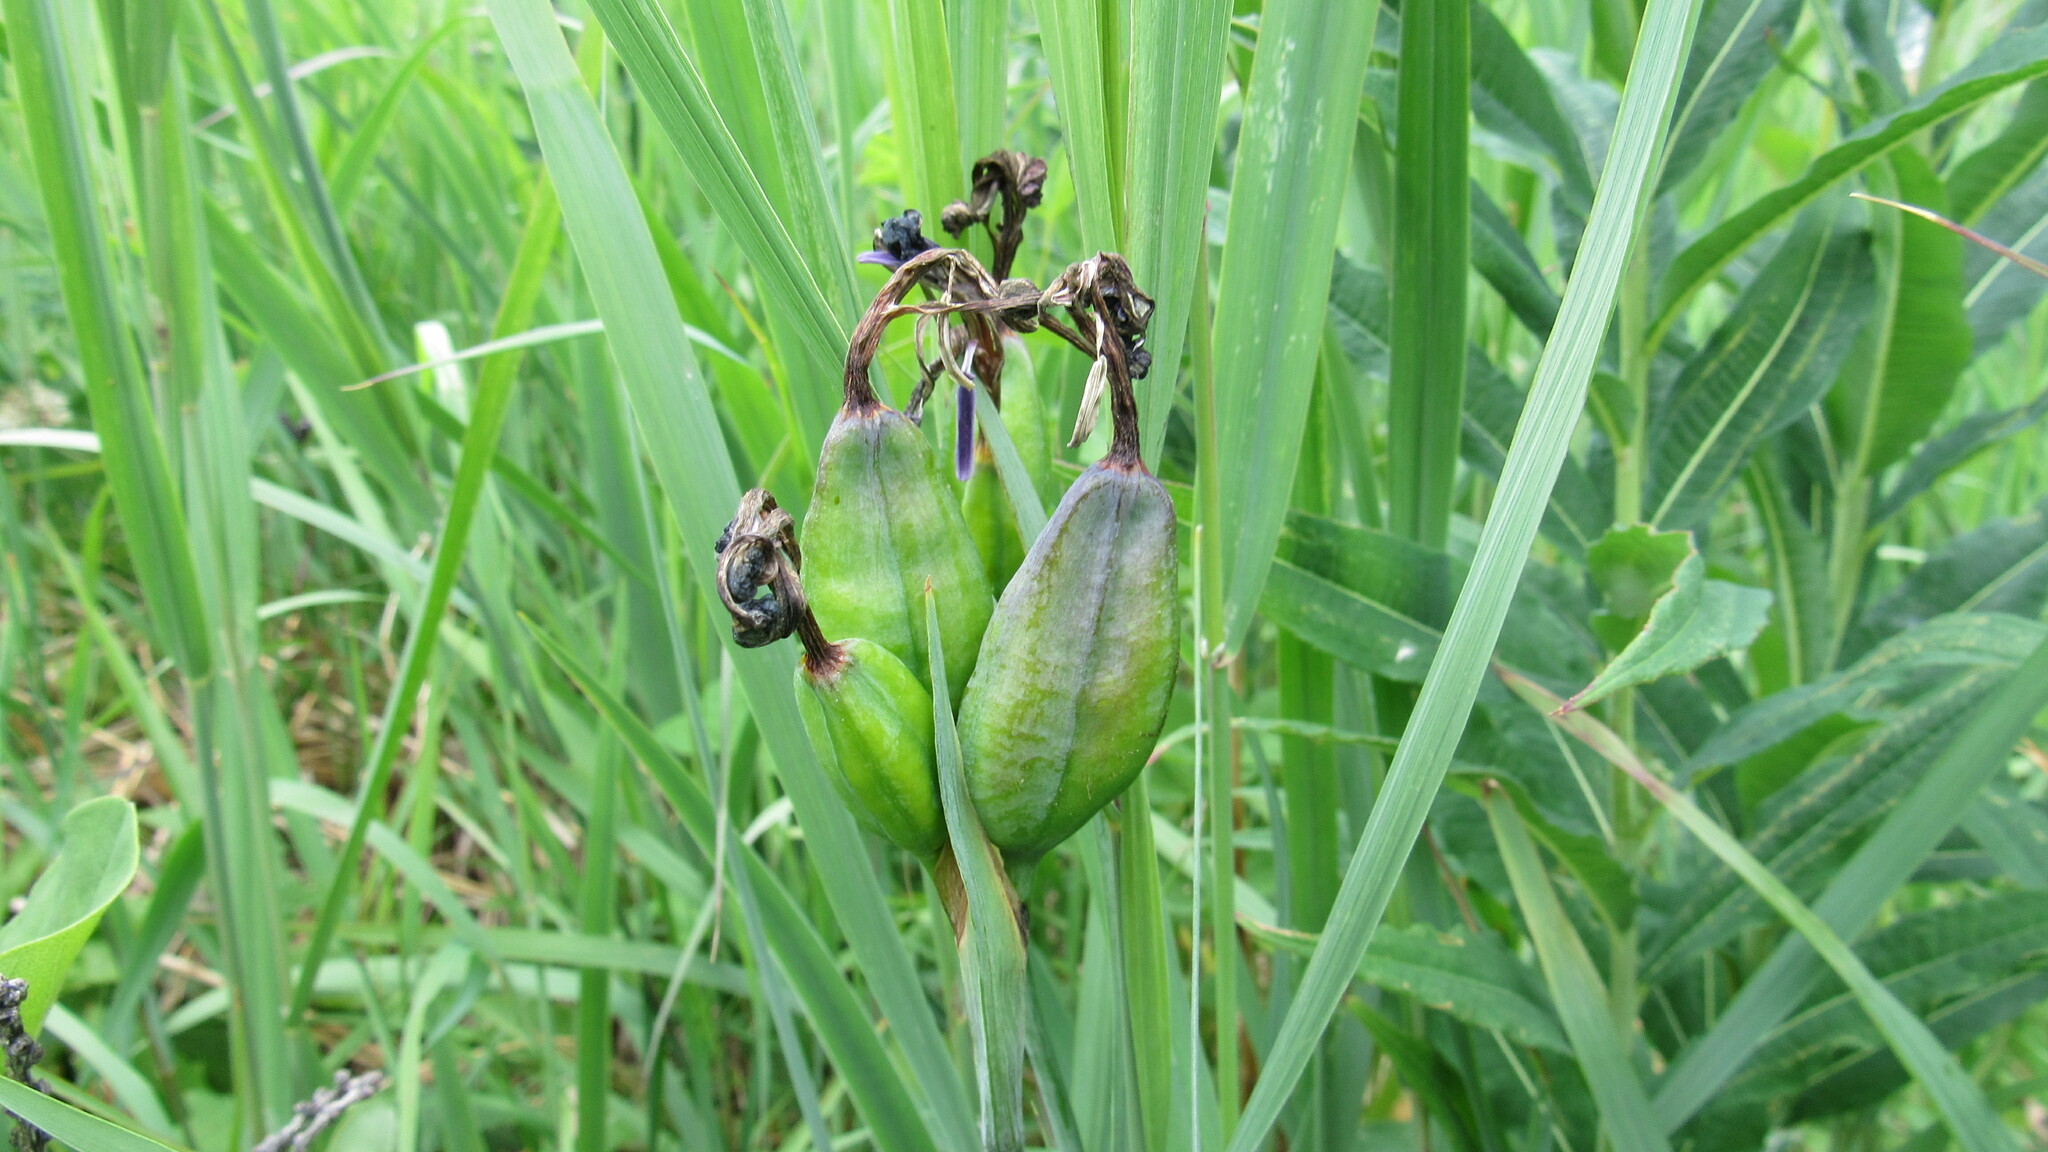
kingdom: Plantae
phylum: Tracheophyta
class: Liliopsida
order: Asparagales
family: Iridaceae
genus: Iris
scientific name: Iris setosa
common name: Arctic blue flag
